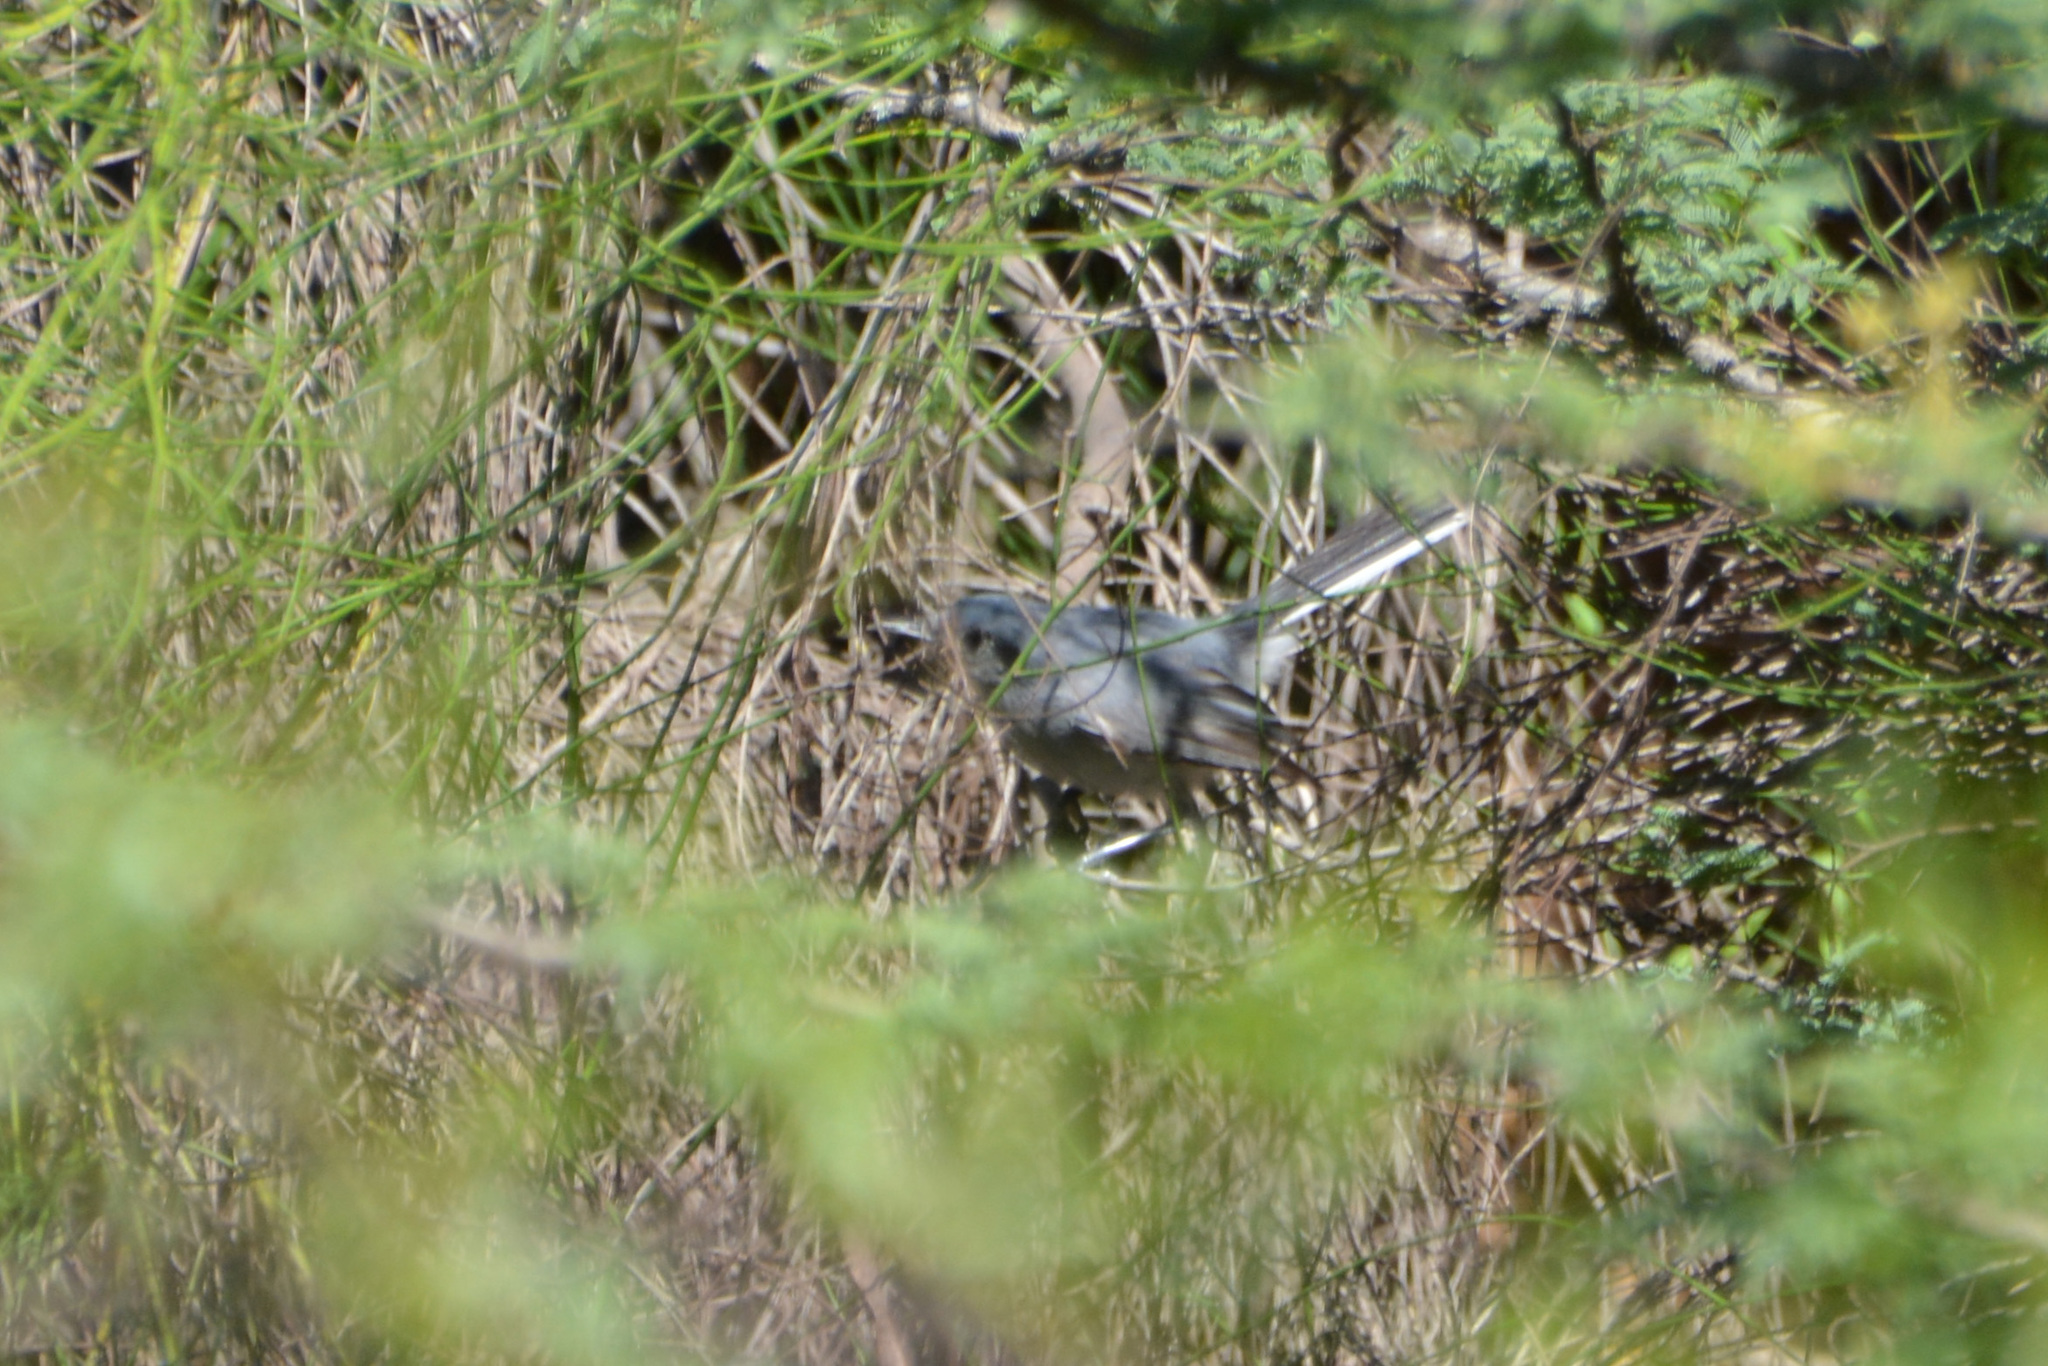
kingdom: Animalia
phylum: Chordata
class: Aves
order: Passeriformes
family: Polioptilidae
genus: Polioptila
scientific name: Polioptila dumicola
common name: Masked gnatcatcher
